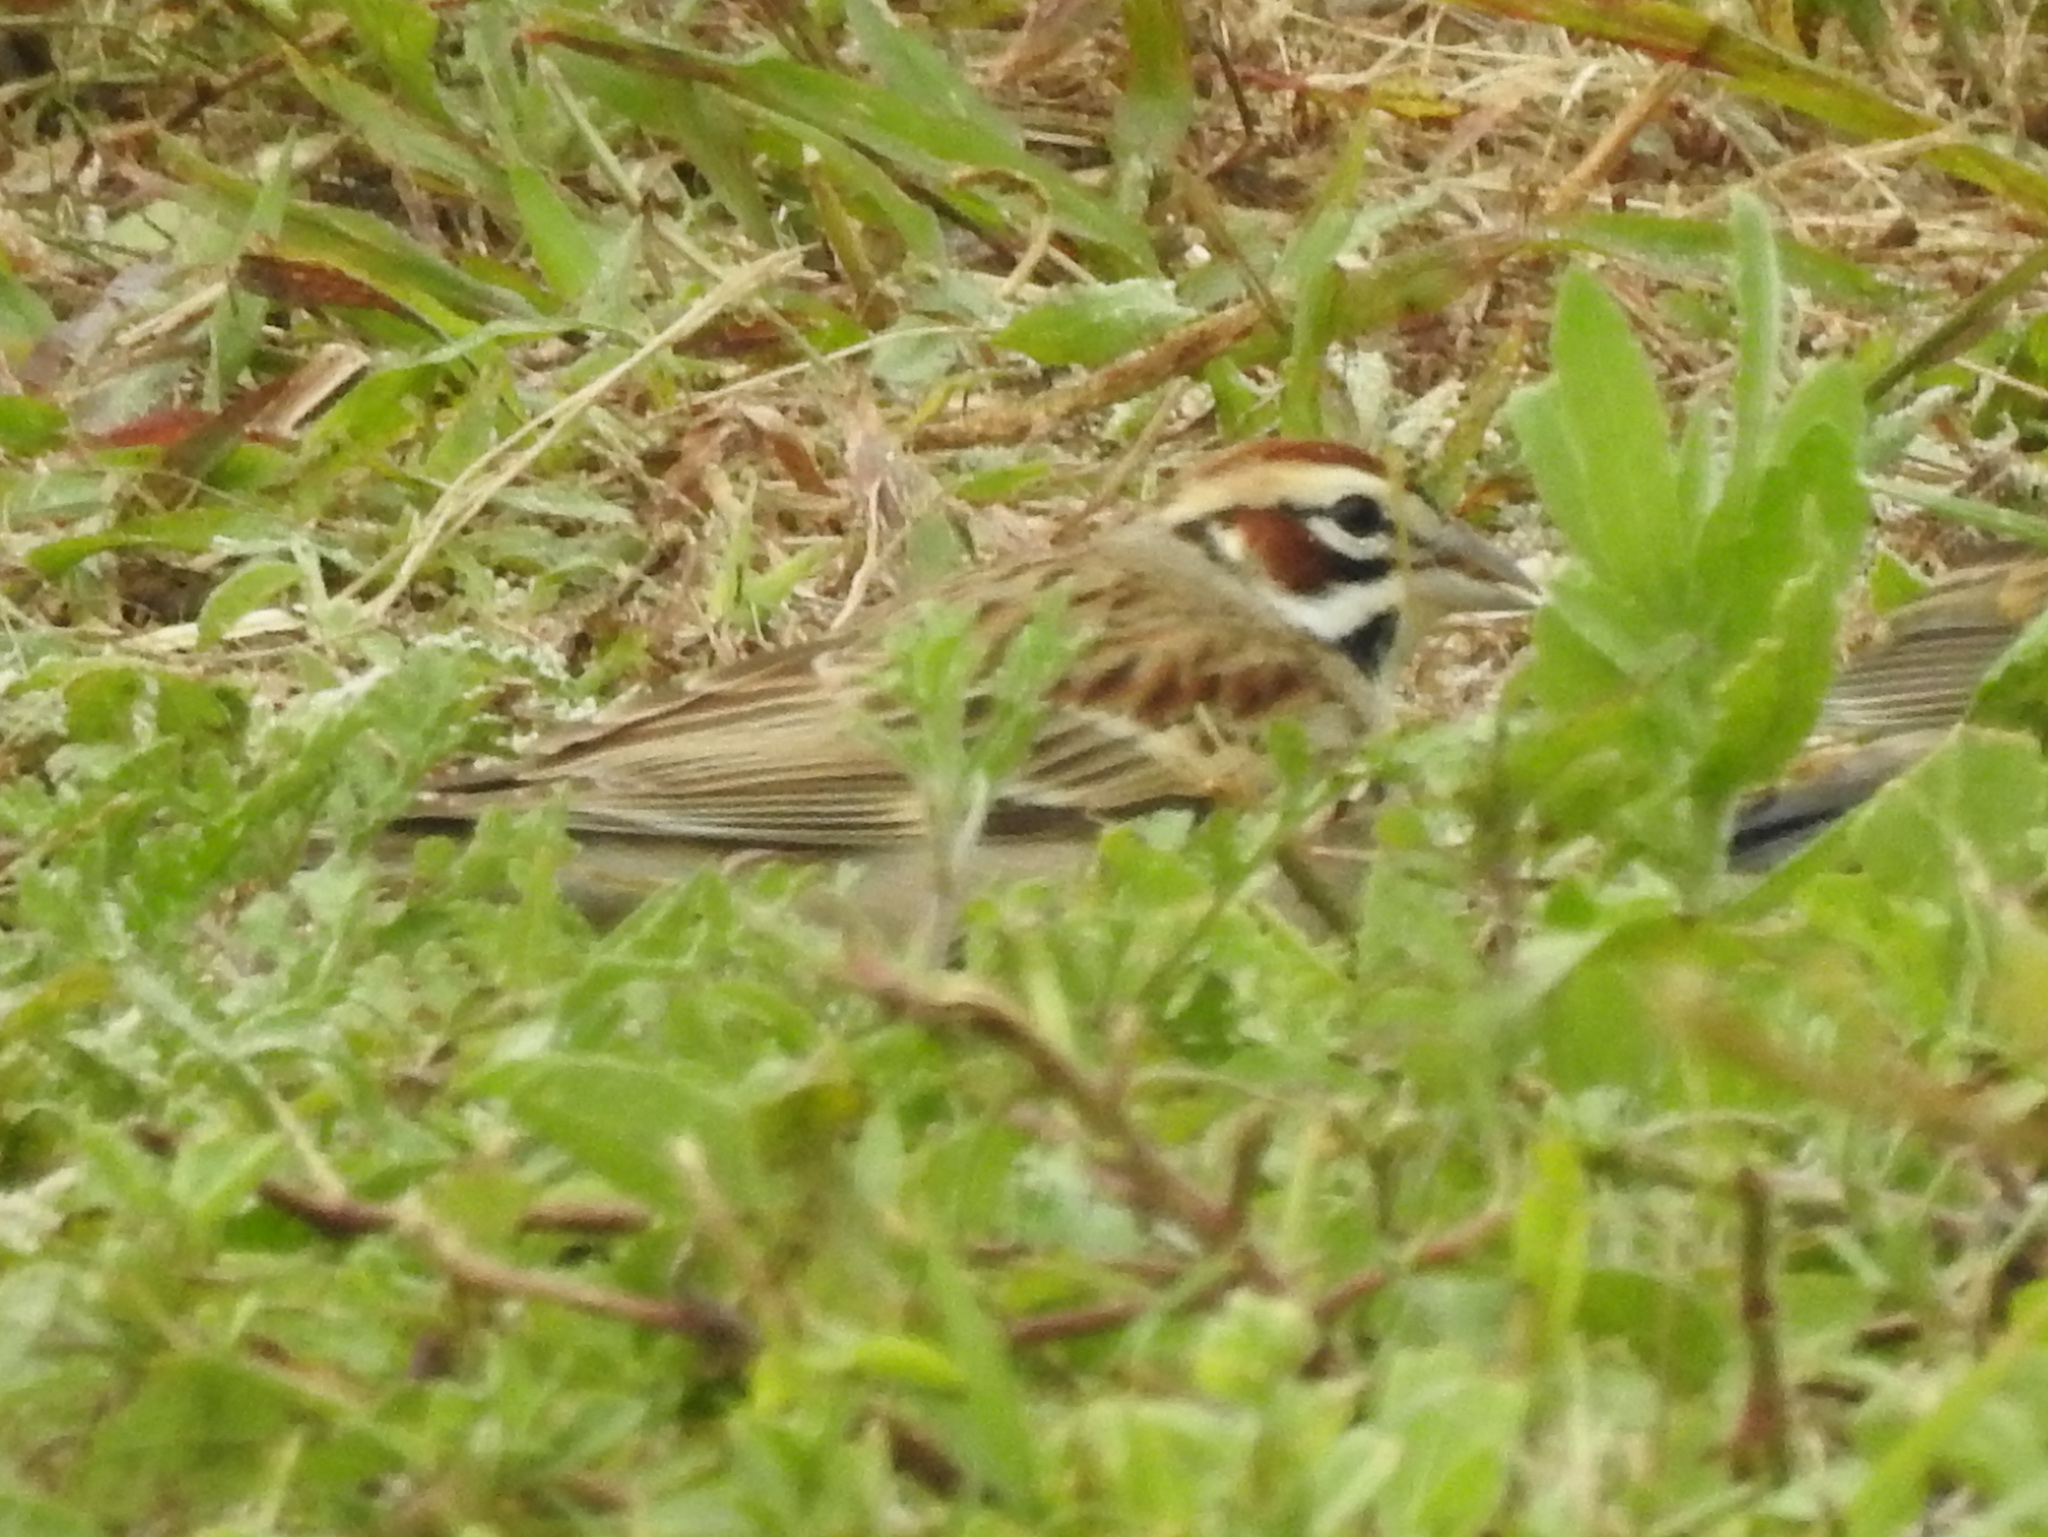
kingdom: Animalia
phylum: Chordata
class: Aves
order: Passeriformes
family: Passerellidae
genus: Chondestes
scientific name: Chondestes grammacus
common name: Lark sparrow
